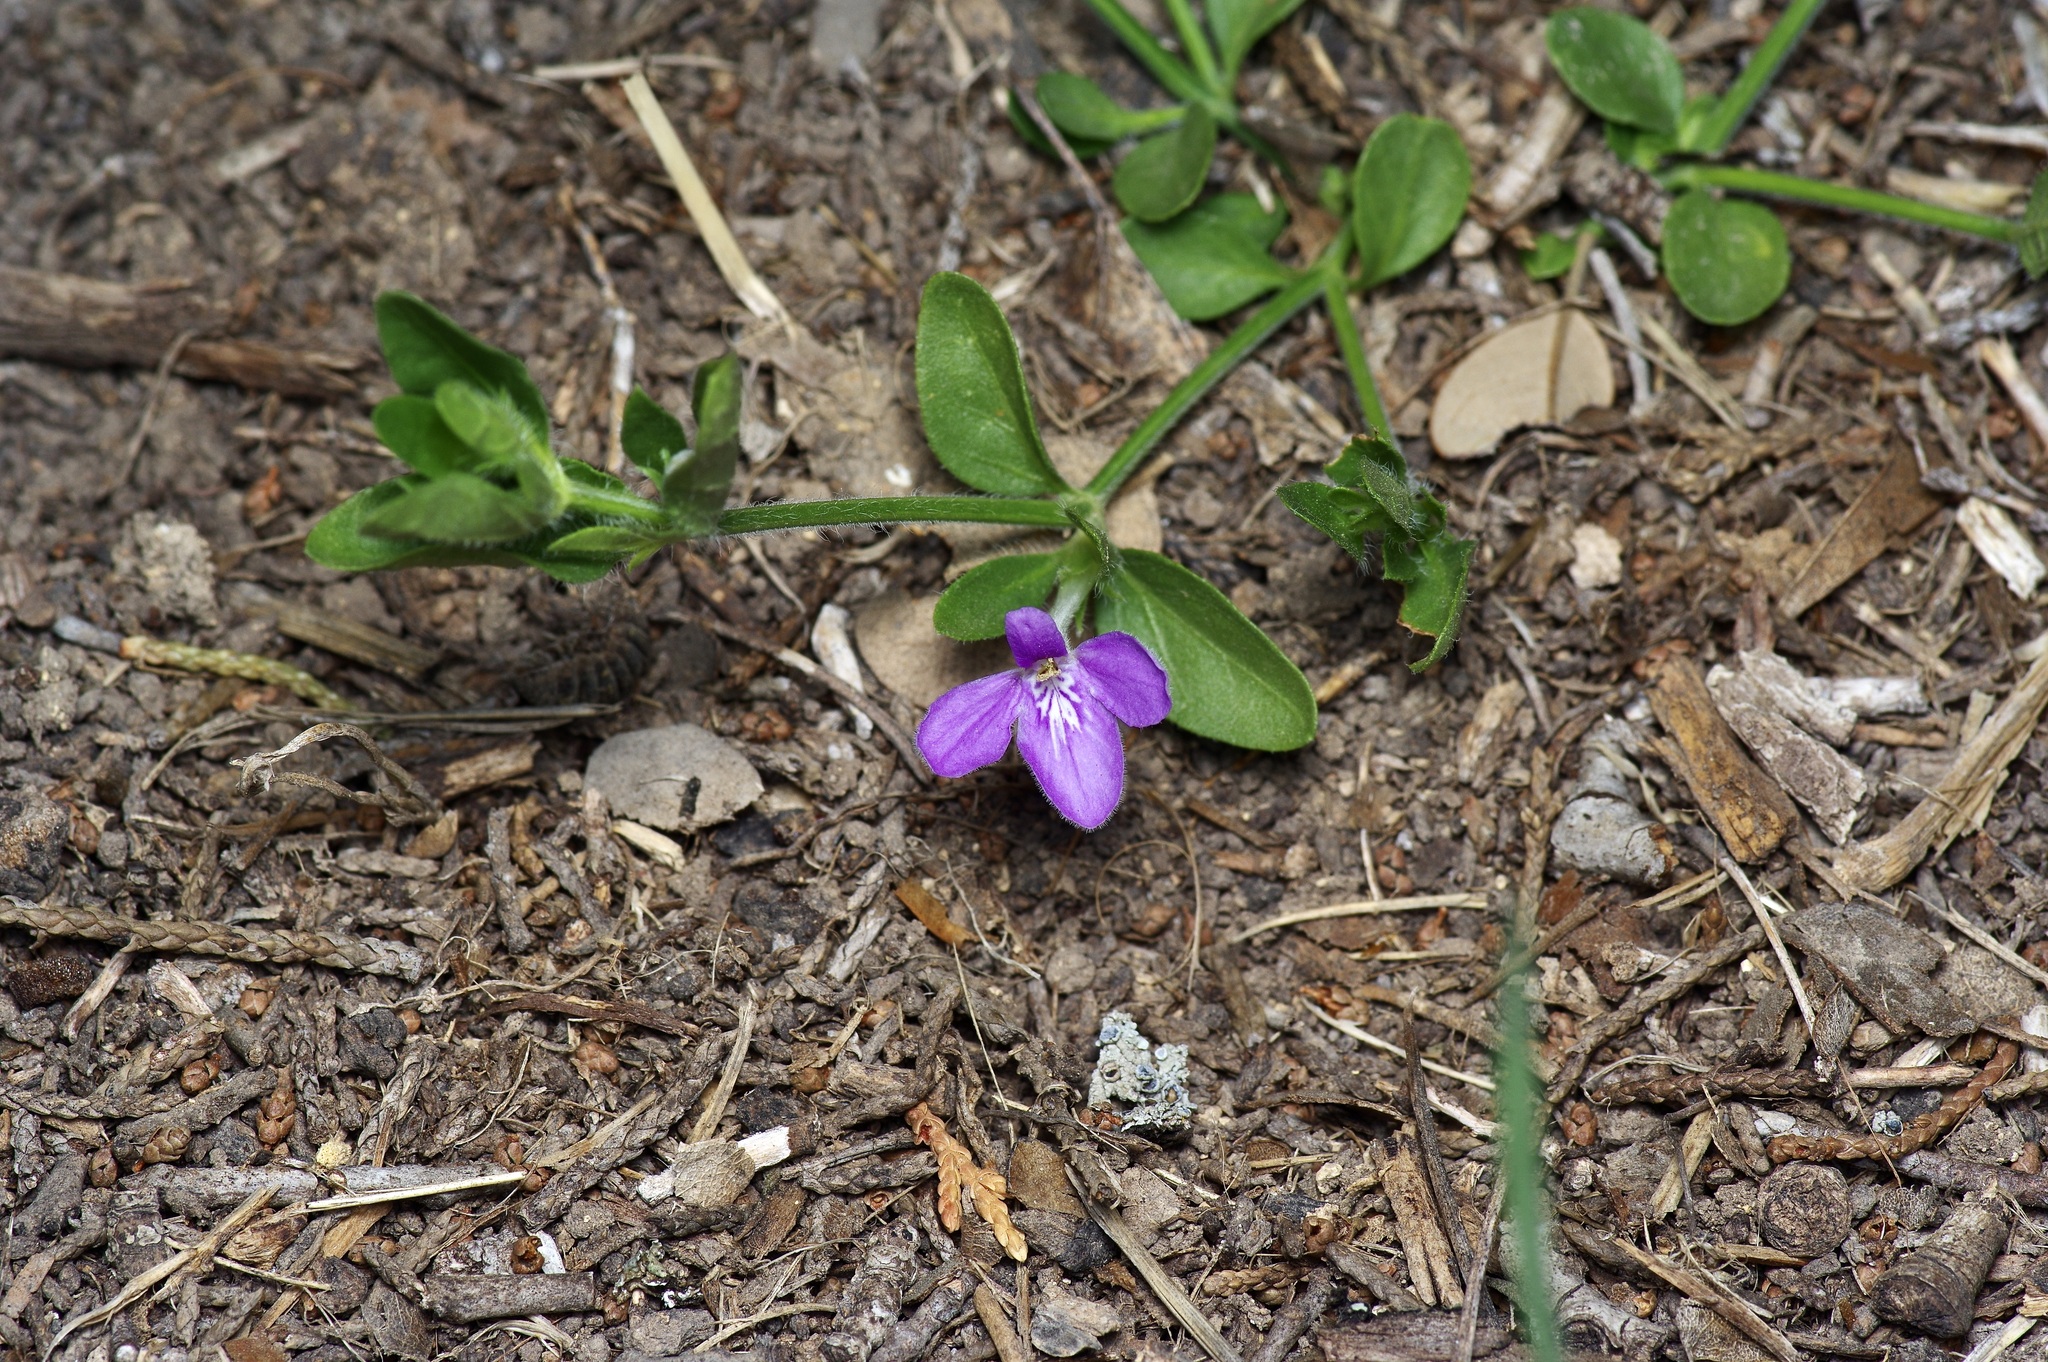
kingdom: Plantae
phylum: Tracheophyta
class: Magnoliopsida
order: Lamiales
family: Acanthaceae
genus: Justicia
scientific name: Justicia pilosella
